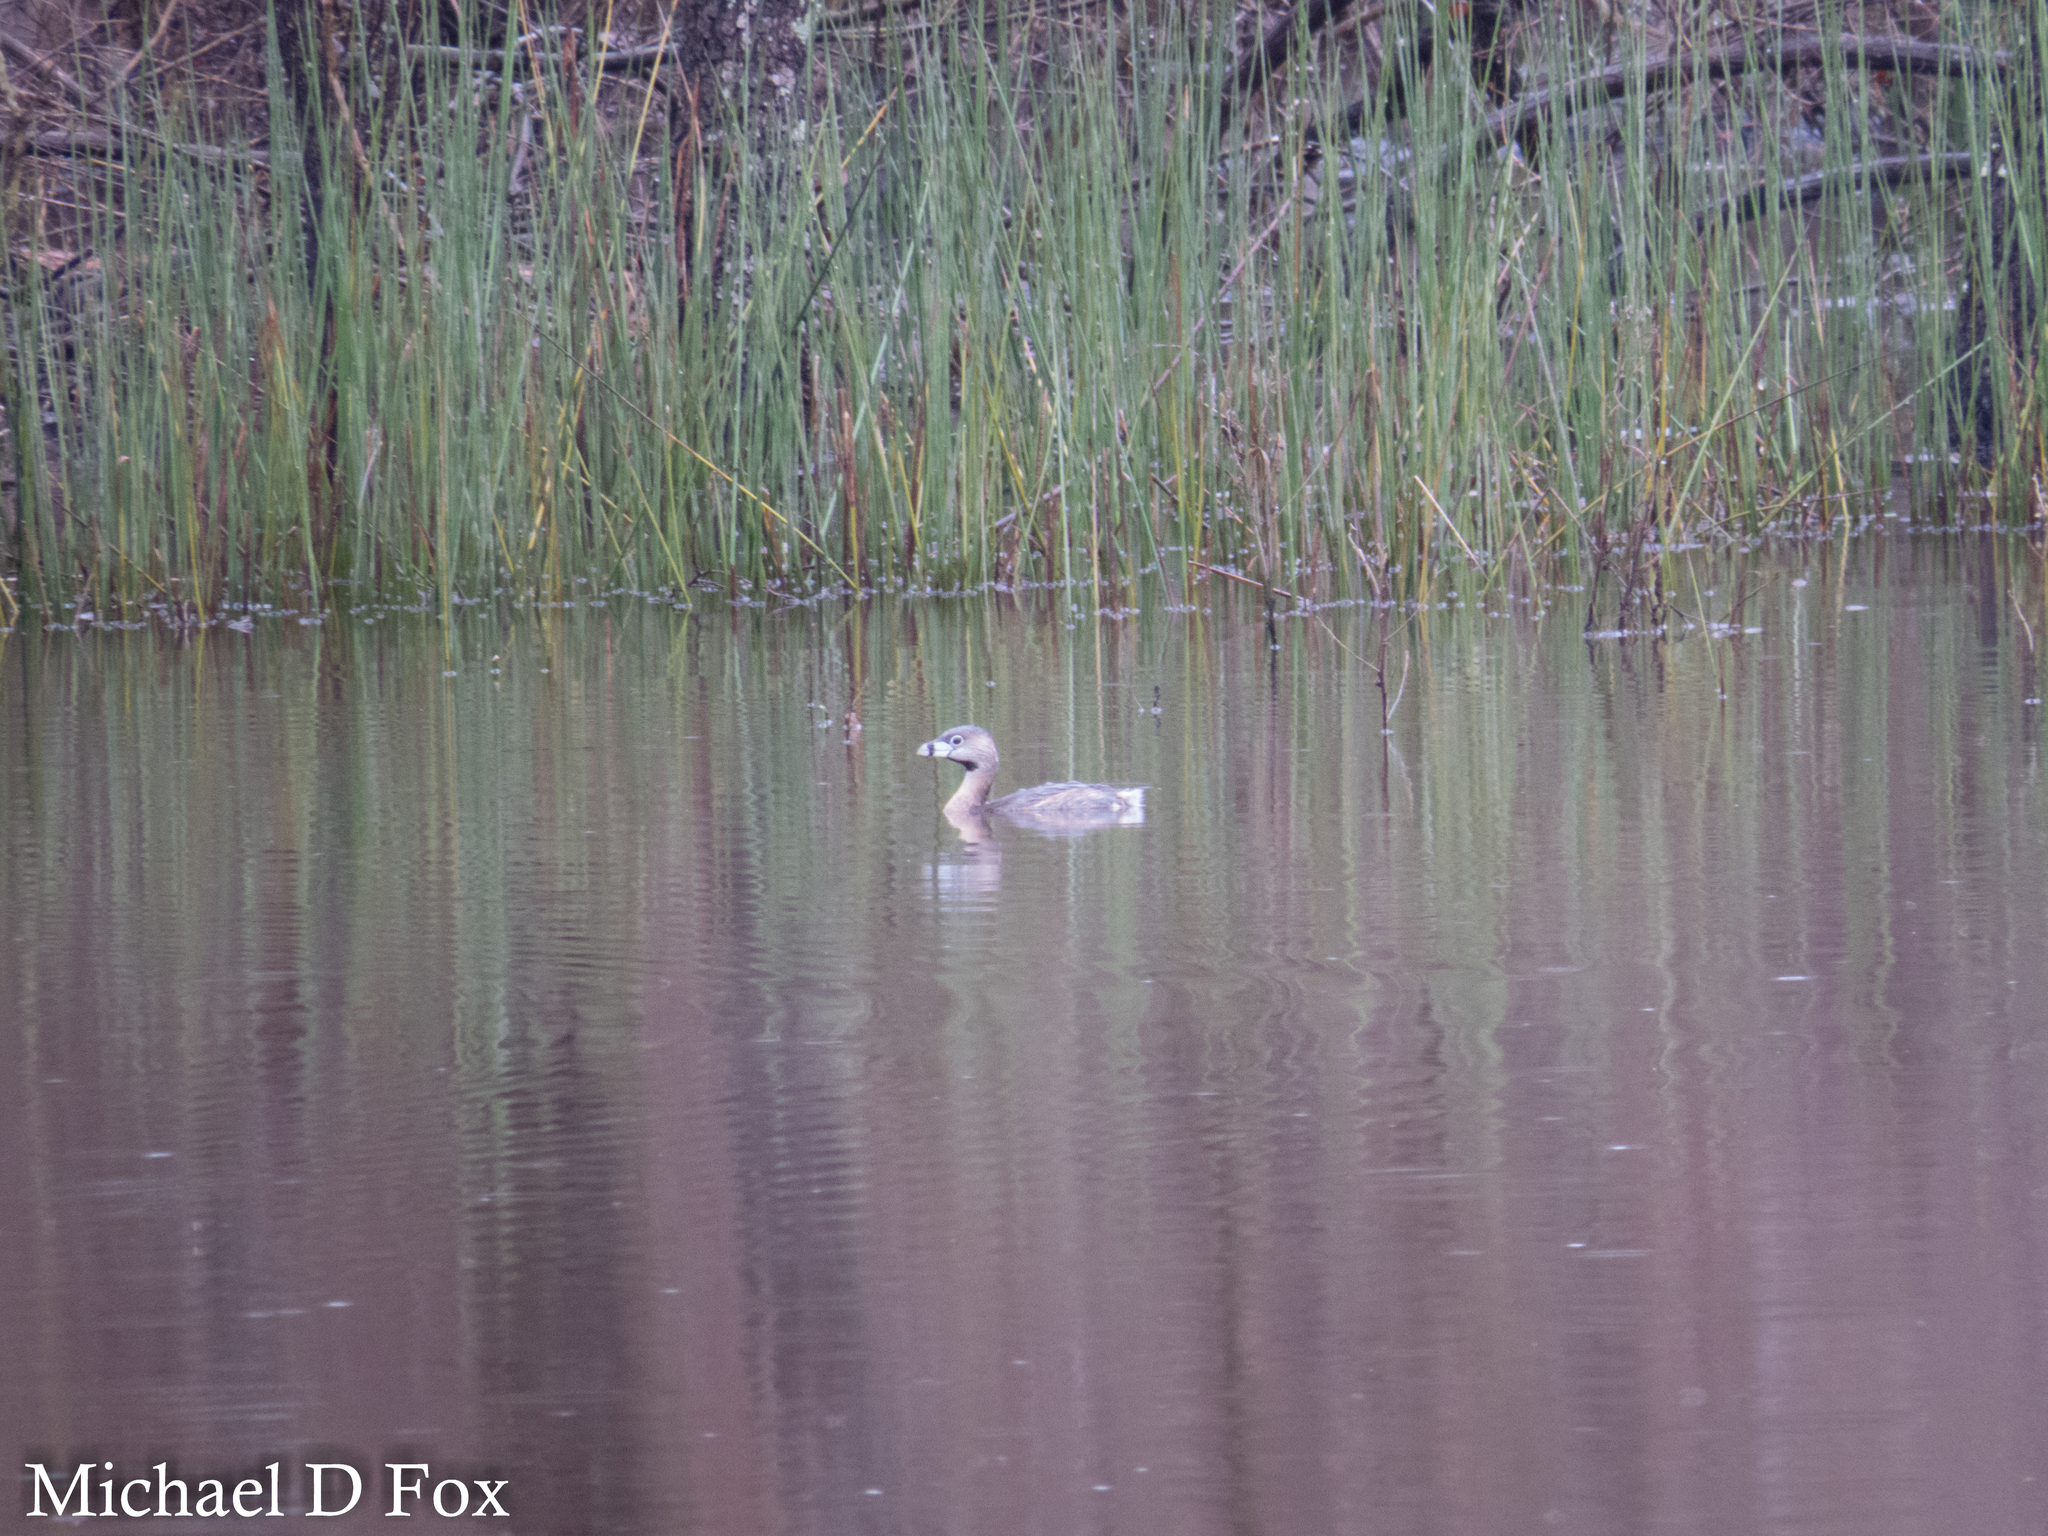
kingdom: Animalia
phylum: Chordata
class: Aves
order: Podicipediformes
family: Podicipedidae
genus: Podilymbus
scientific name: Podilymbus podiceps
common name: Pied-billed grebe
